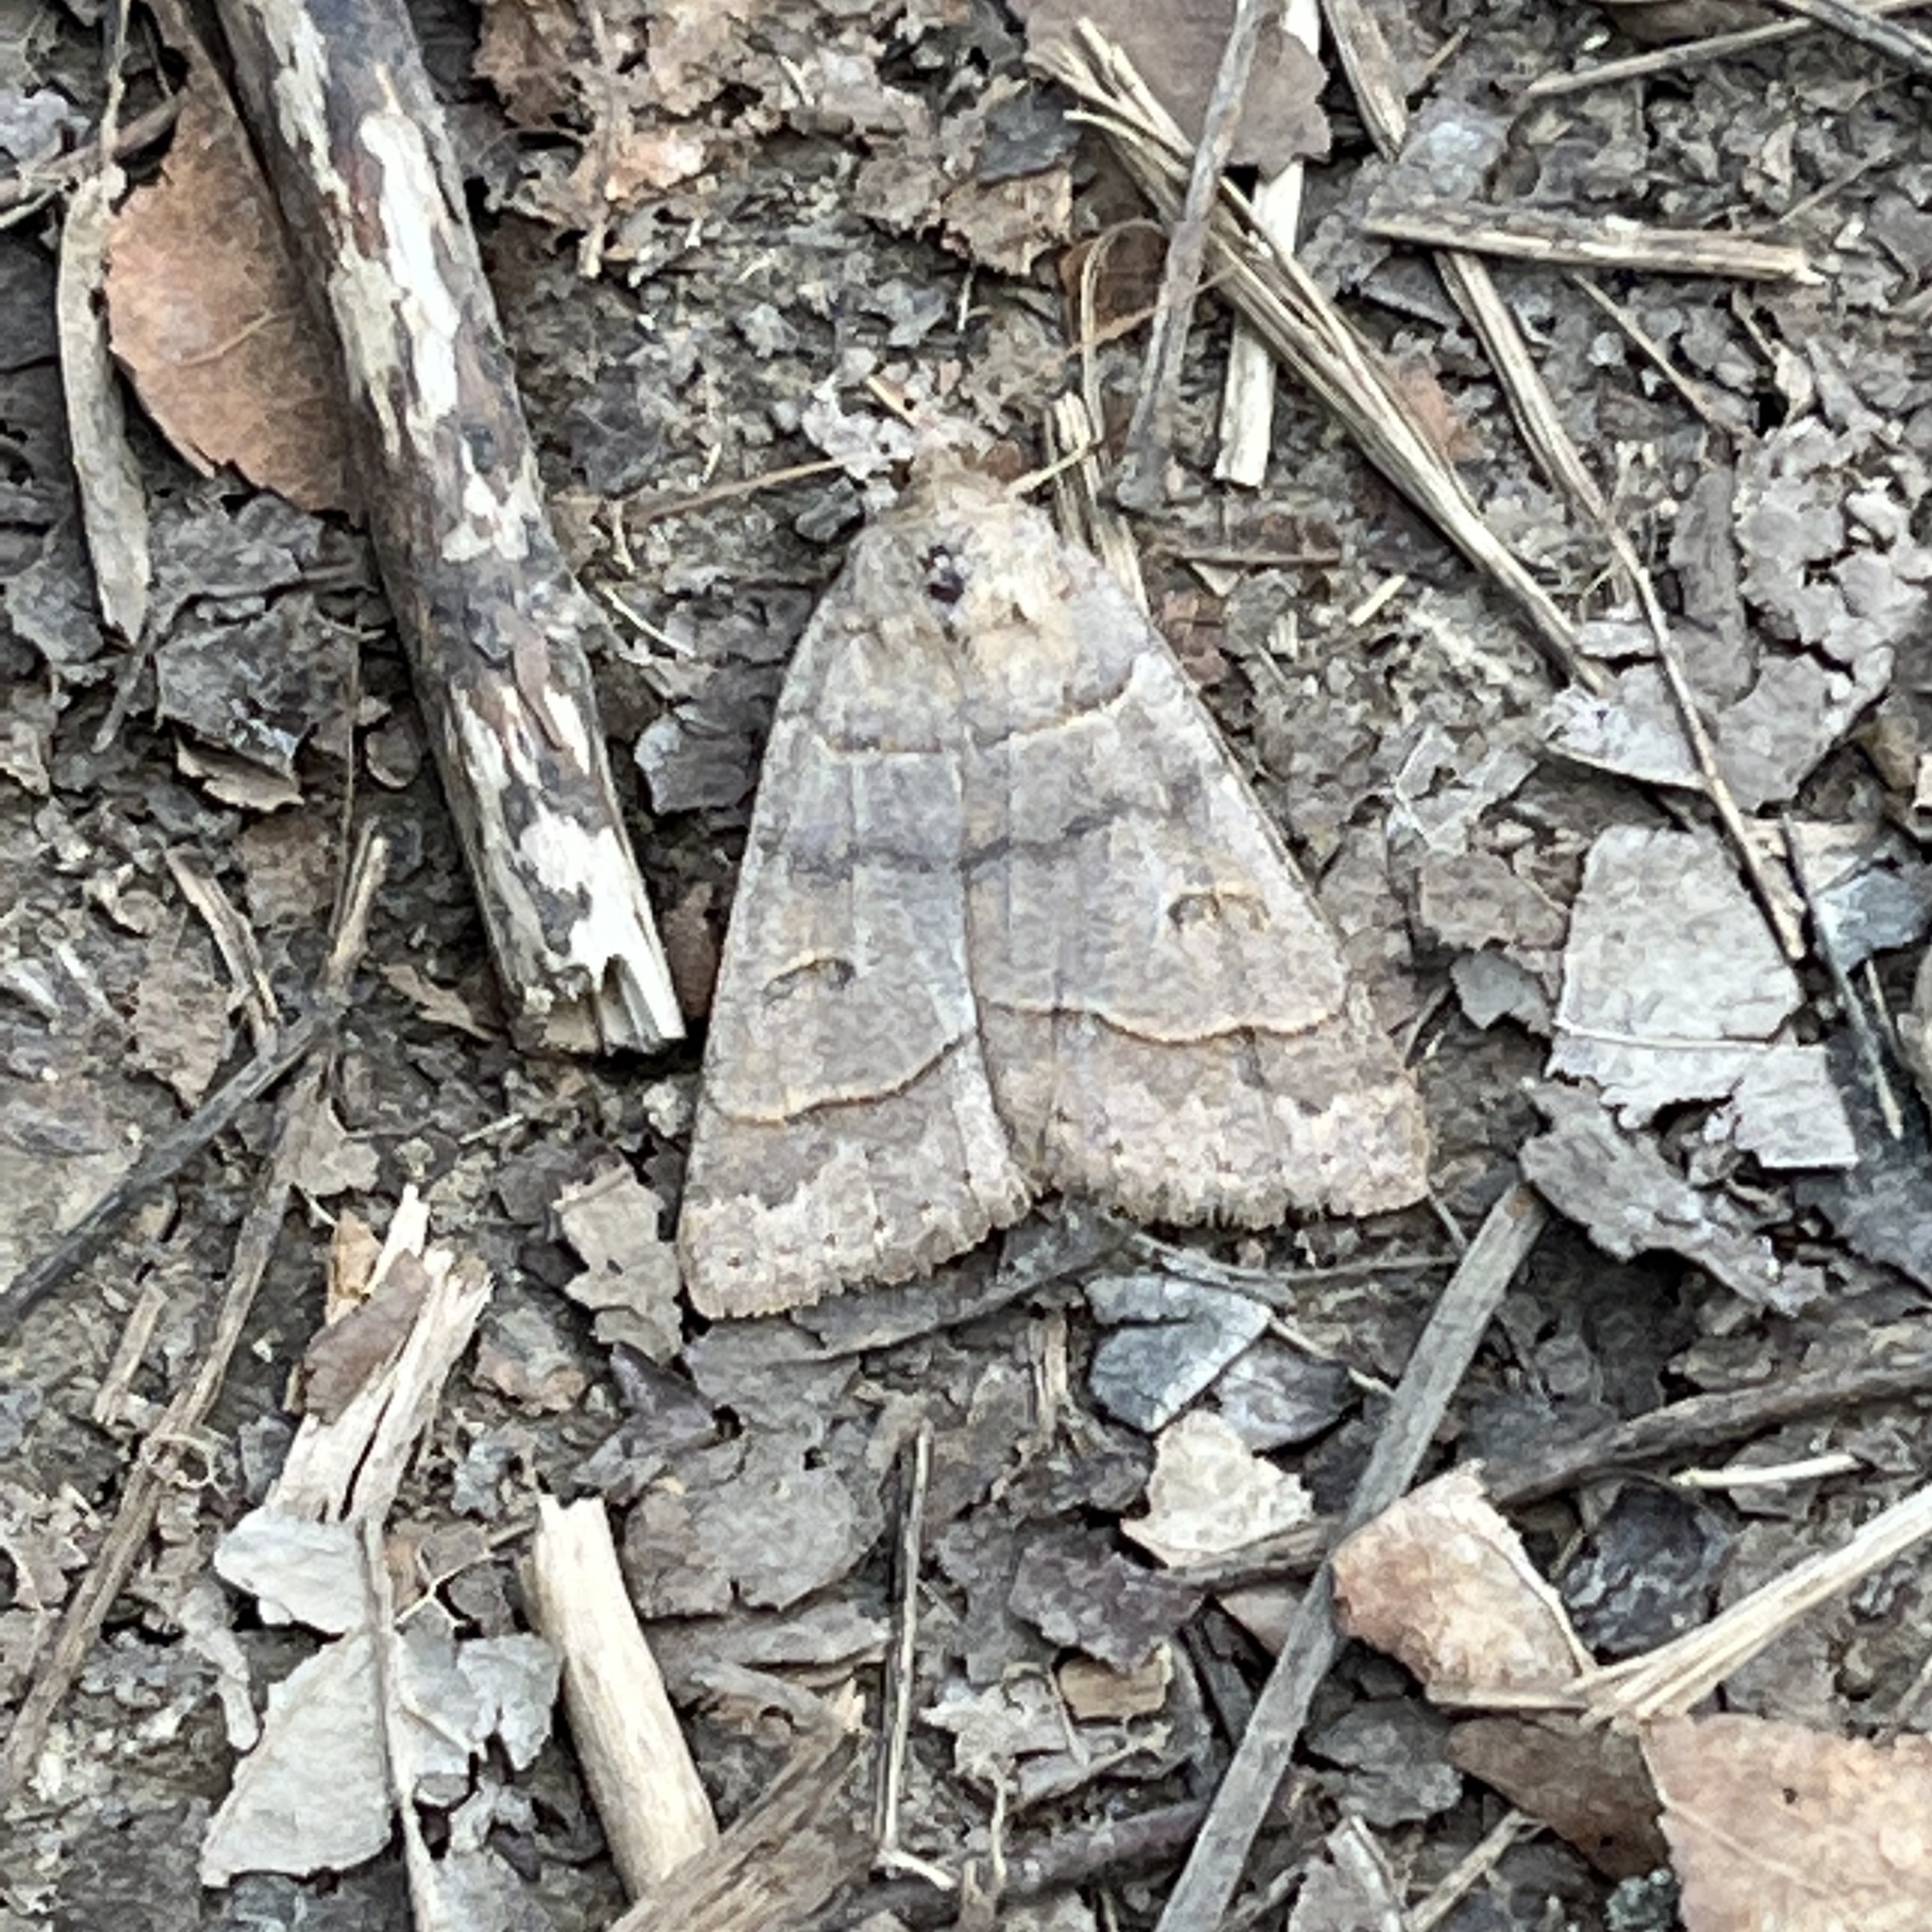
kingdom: Animalia
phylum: Arthropoda
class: Insecta
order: Lepidoptera
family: Erebidae
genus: Phoberia
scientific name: Phoberia atomaris
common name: Common oak moth
